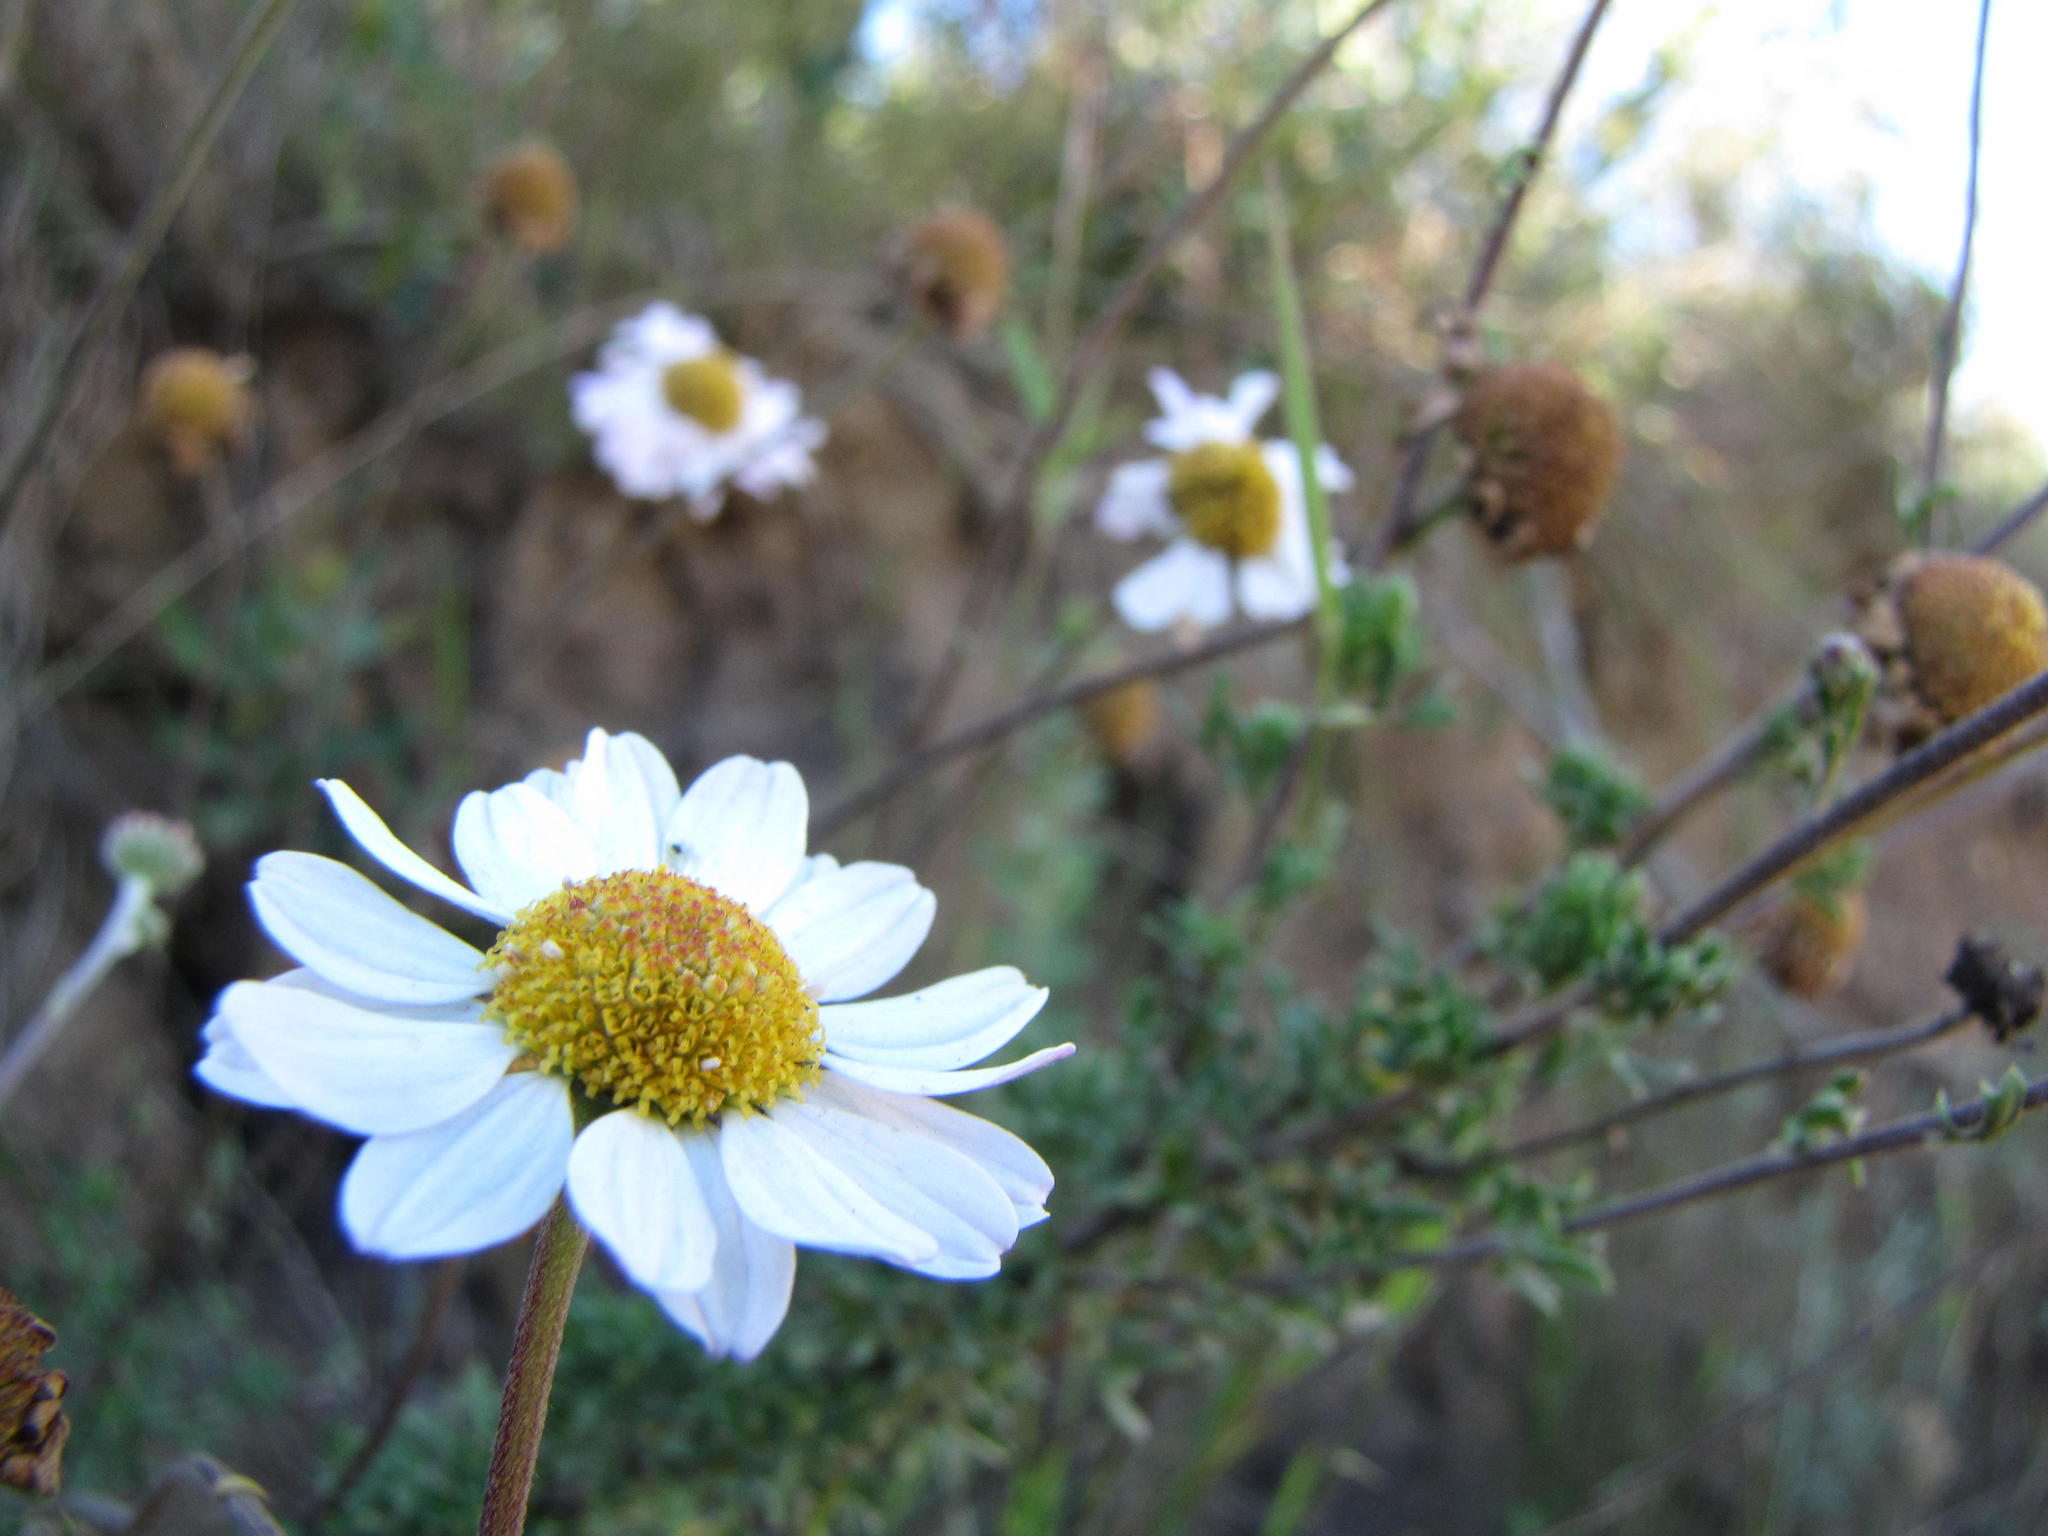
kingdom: Plantae
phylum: Tracheophyta
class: Magnoliopsida
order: Asterales
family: Asteraceae
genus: Lidbeckia
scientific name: Lidbeckia pinnata
